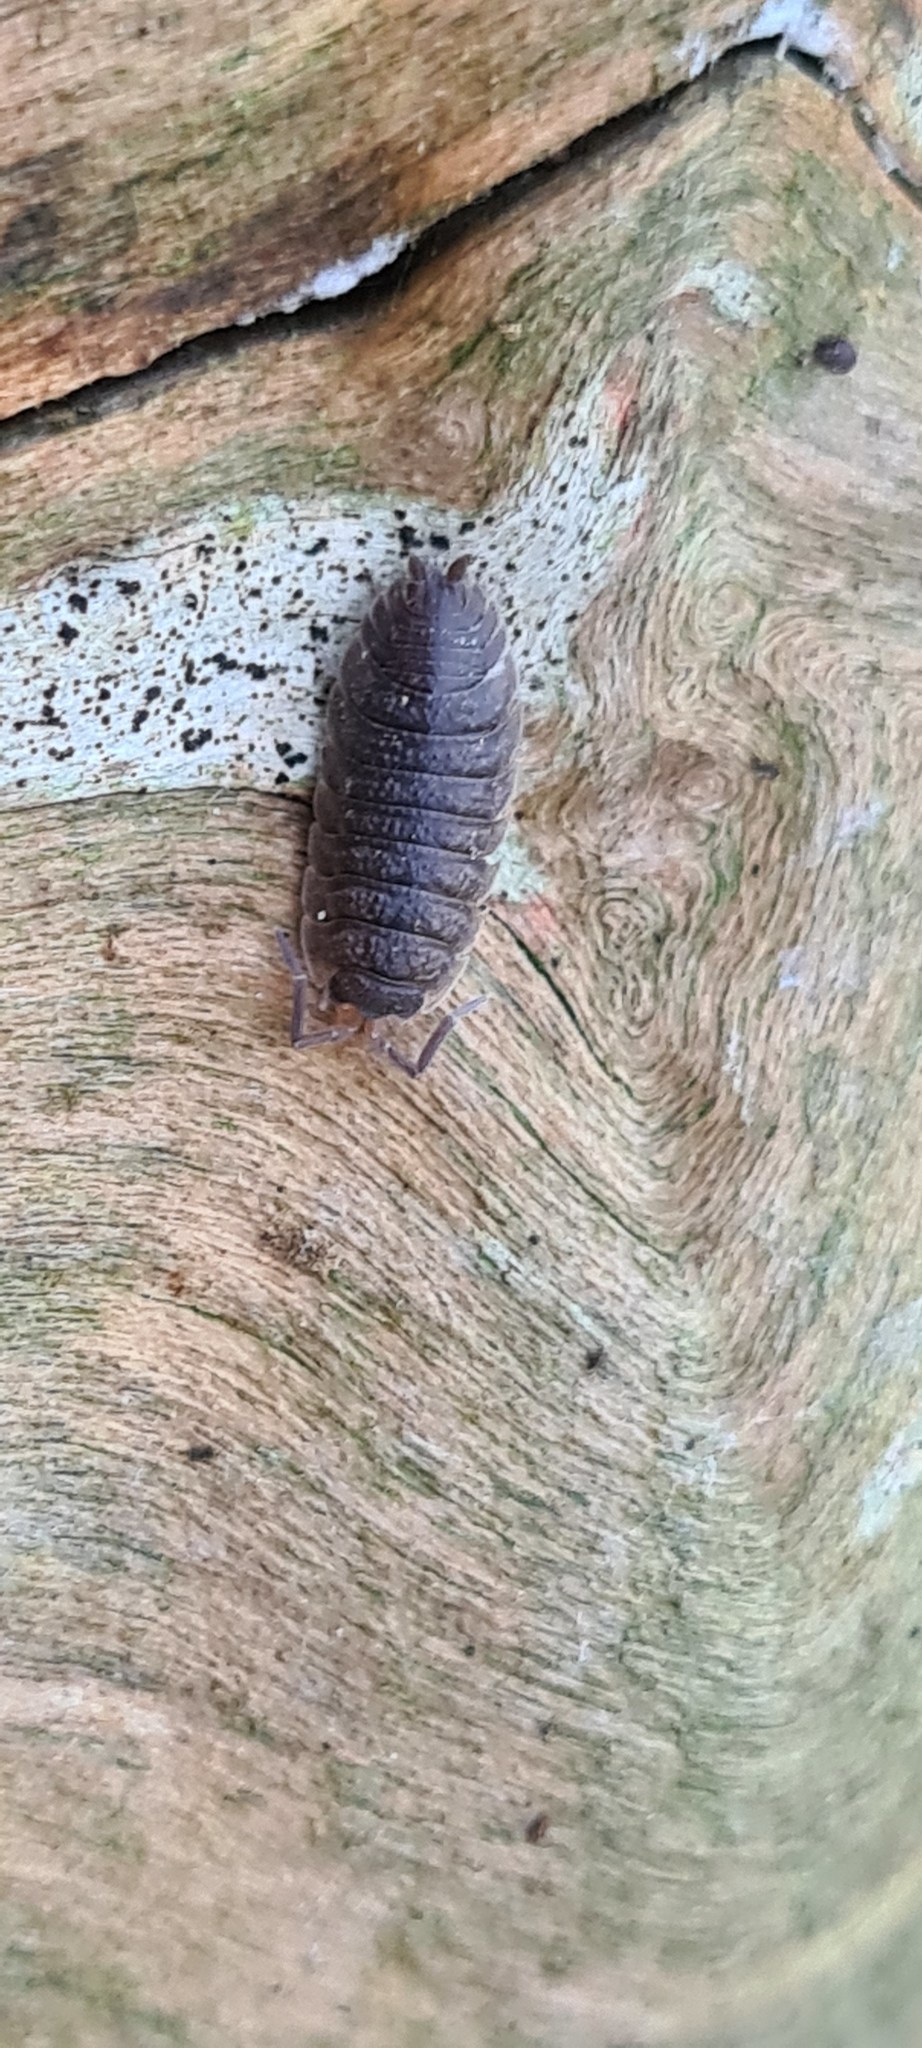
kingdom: Animalia
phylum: Arthropoda
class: Malacostraca
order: Isopoda
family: Porcellionidae
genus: Porcellio
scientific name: Porcellio scaber
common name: Common rough woodlouse
